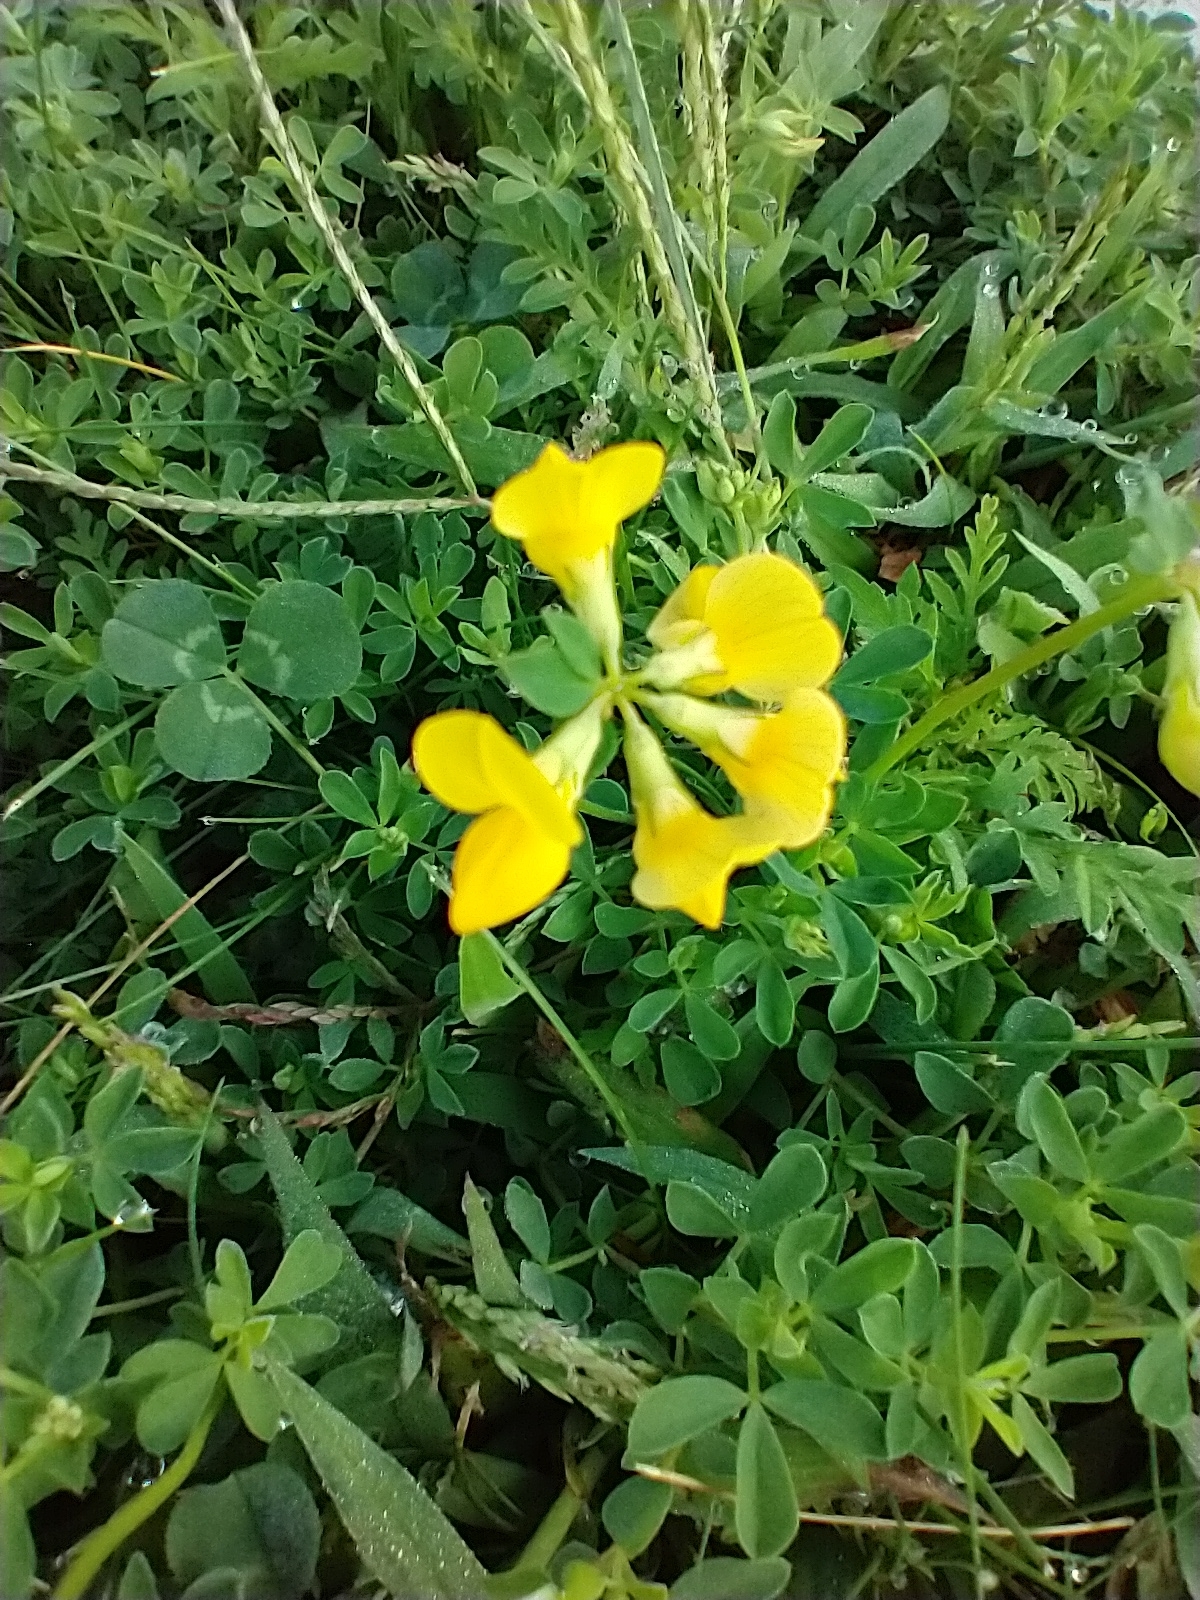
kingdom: Plantae
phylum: Tracheophyta
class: Magnoliopsida
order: Fabales
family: Fabaceae
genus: Lotus
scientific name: Lotus corniculatus
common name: Common bird's-foot-trefoil
